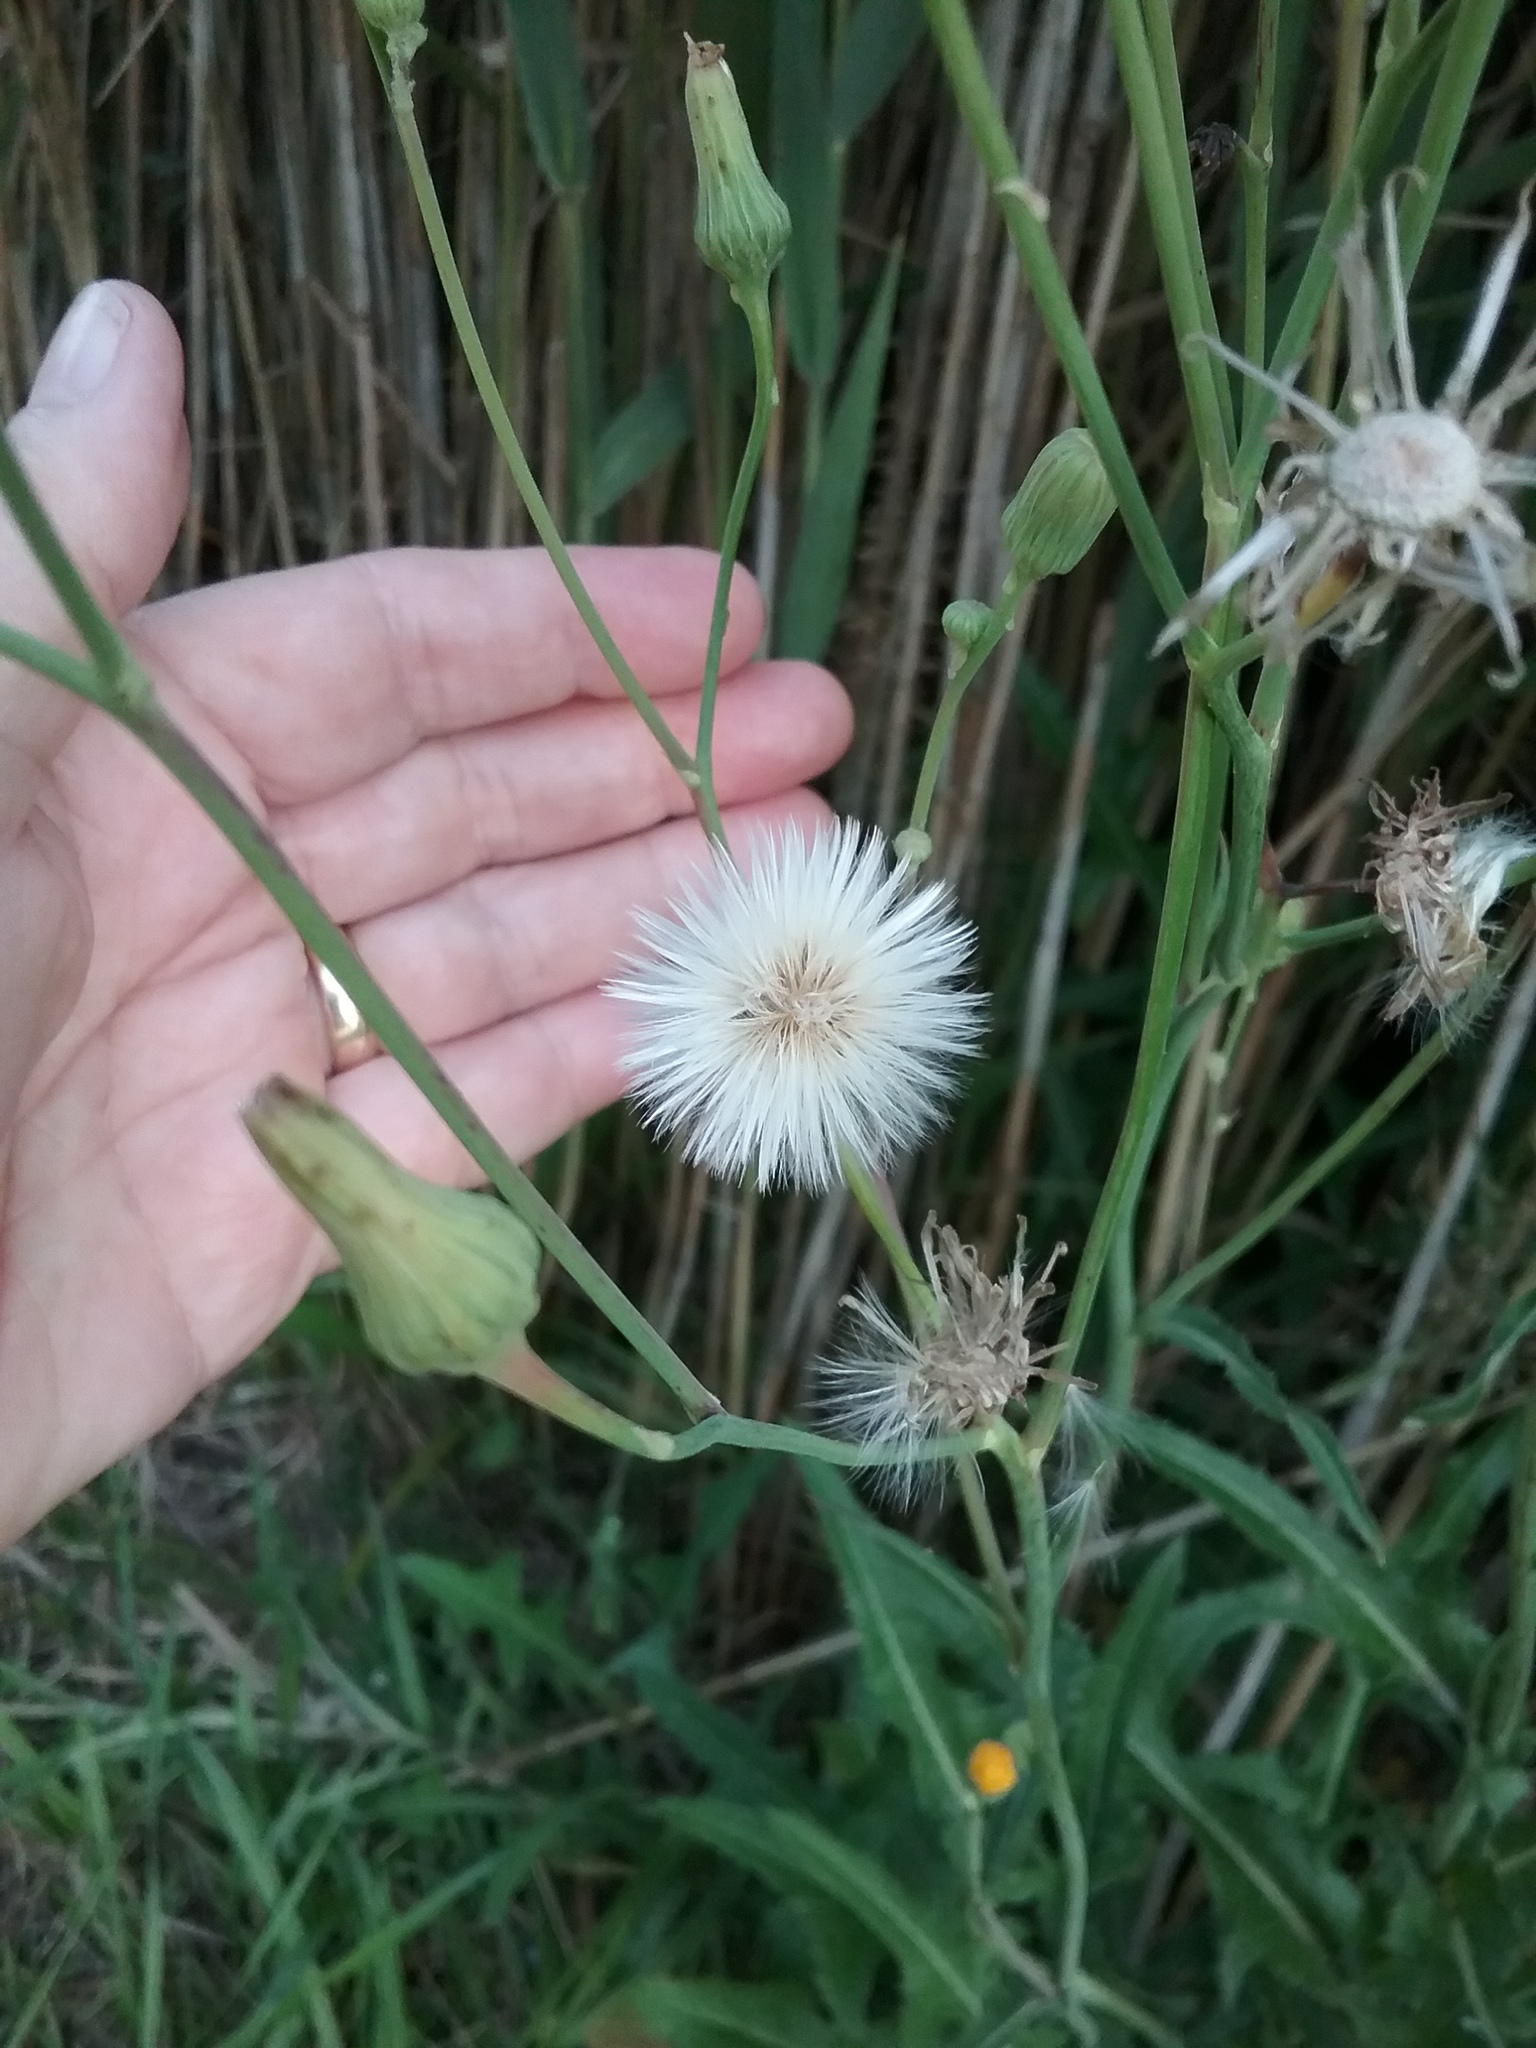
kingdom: Plantae
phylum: Tracheophyta
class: Magnoliopsida
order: Asterales
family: Asteraceae
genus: Sonchus
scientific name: Sonchus arvensis
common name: Perennial sow-thistle
